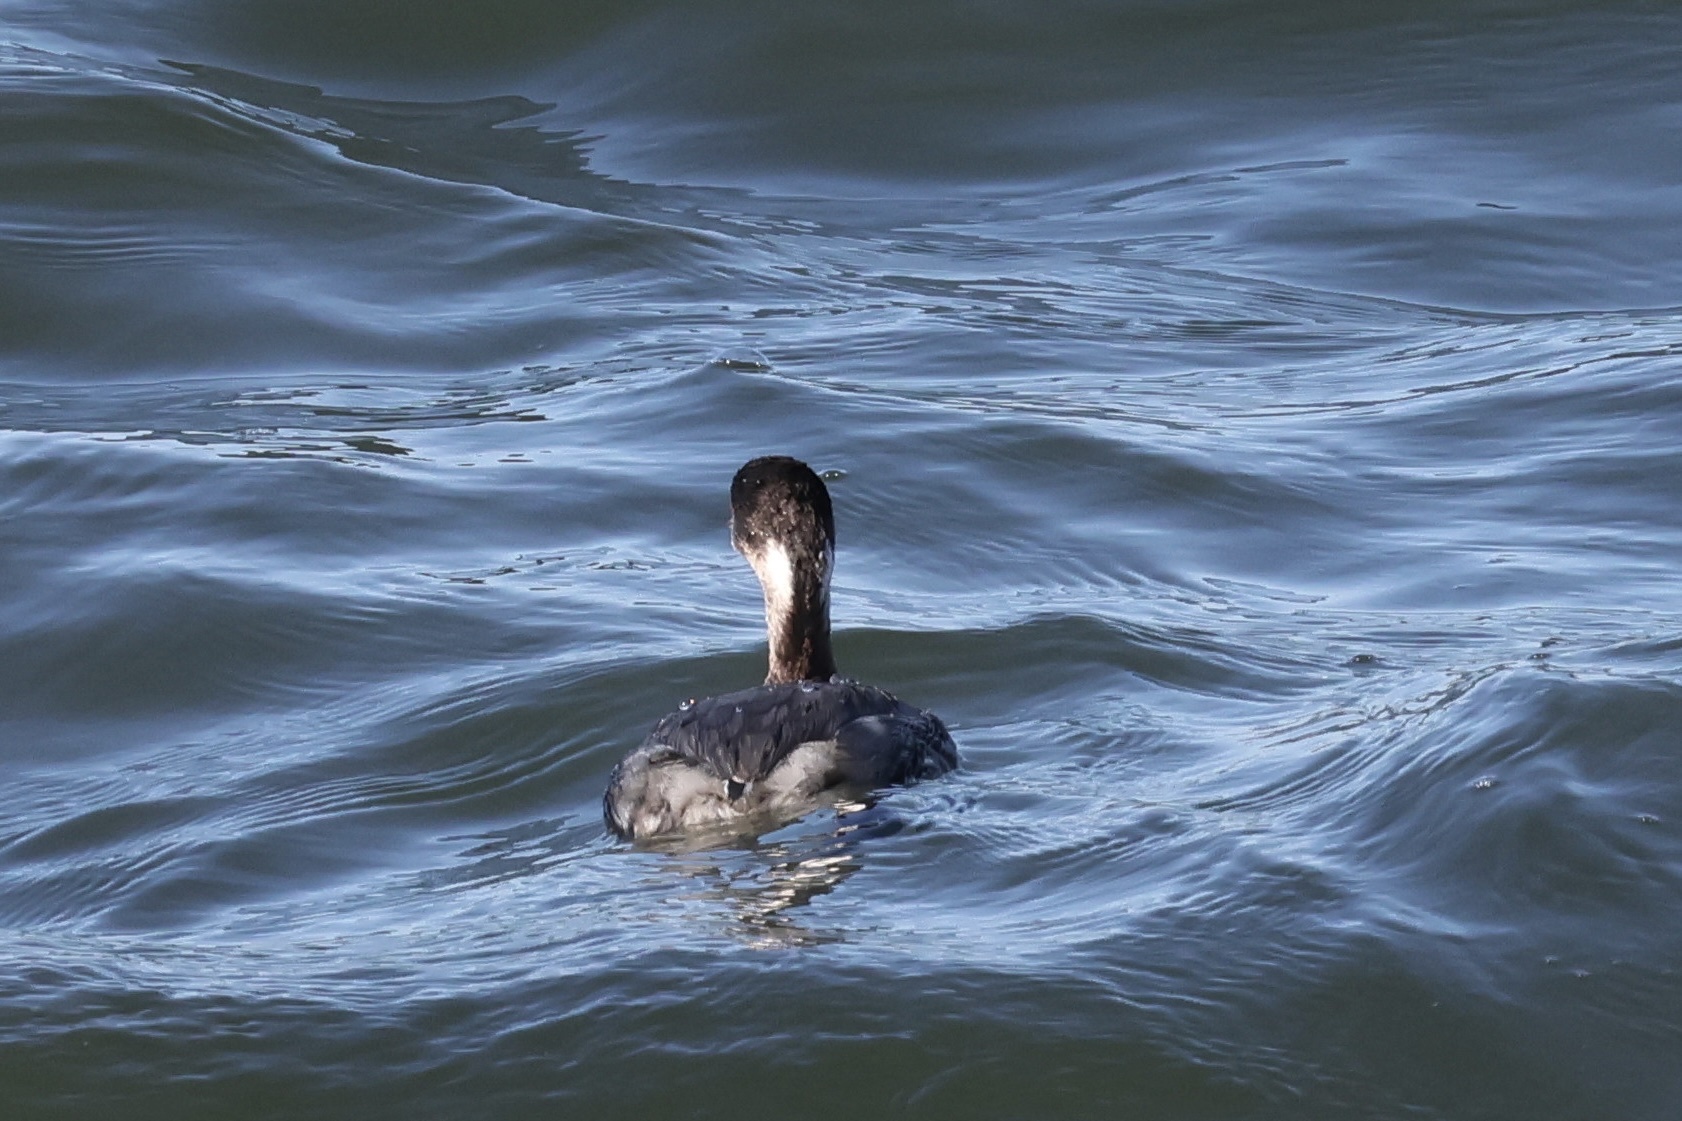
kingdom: Animalia
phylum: Chordata
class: Aves
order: Podicipediformes
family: Podicipedidae
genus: Podiceps
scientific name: Podiceps nigricollis
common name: Black-necked grebe
